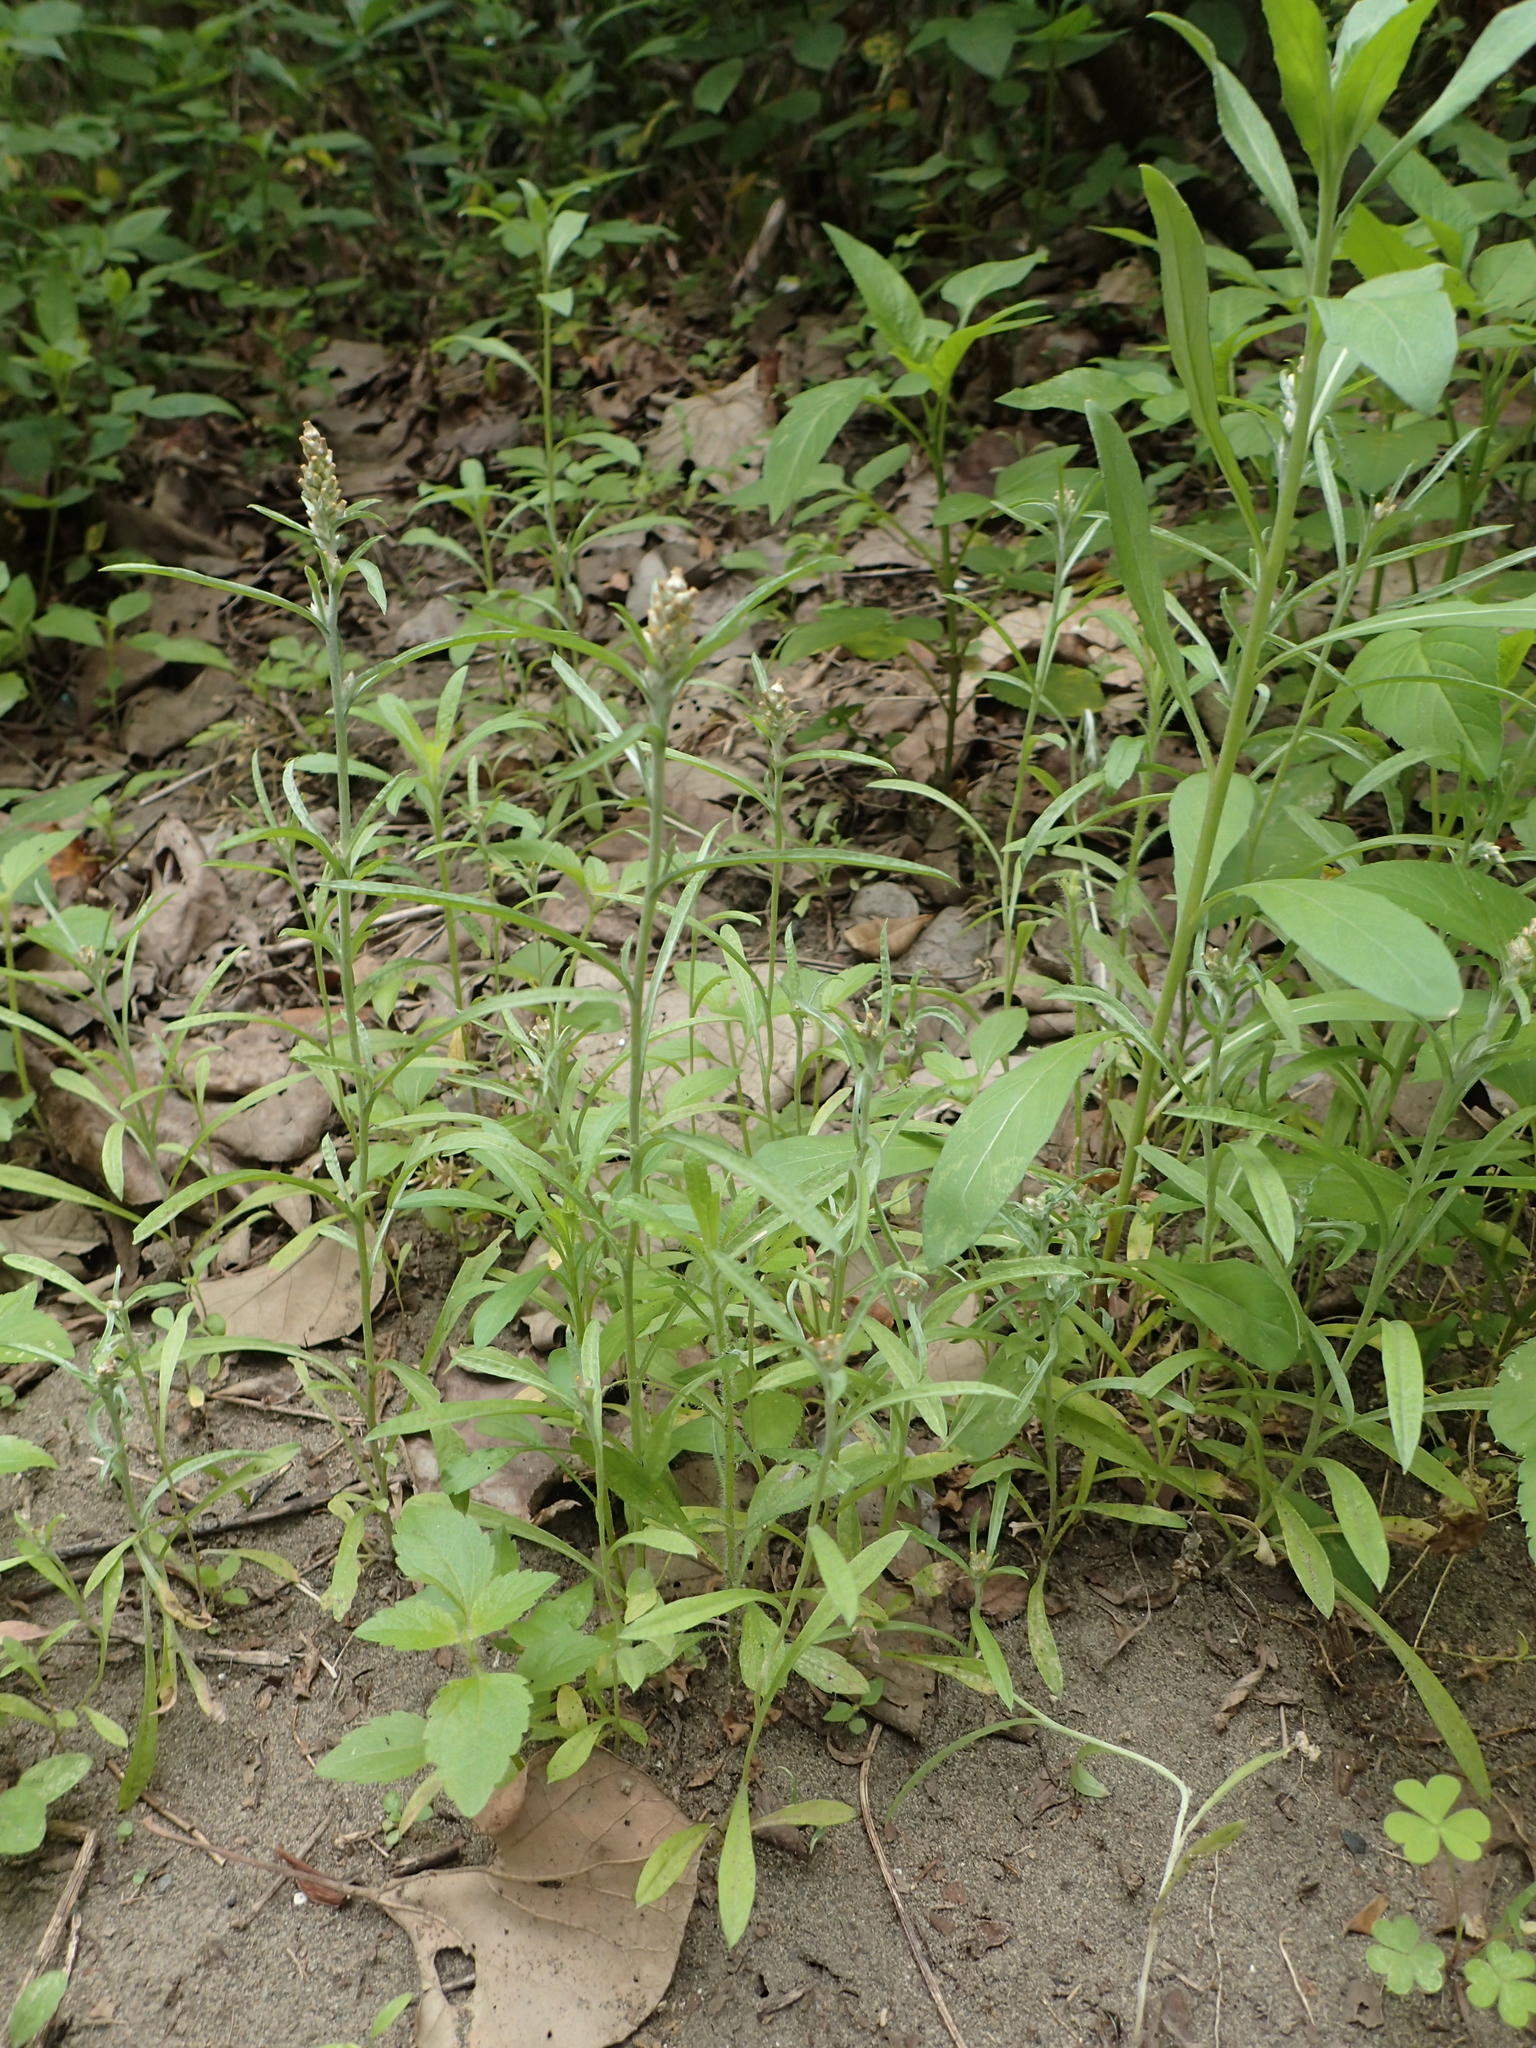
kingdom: Plantae
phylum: Tracheophyta
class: Magnoliopsida
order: Asterales
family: Asteraceae
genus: Gamochaeta
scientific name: Gamochaeta purpurea
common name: Purple cudweed
